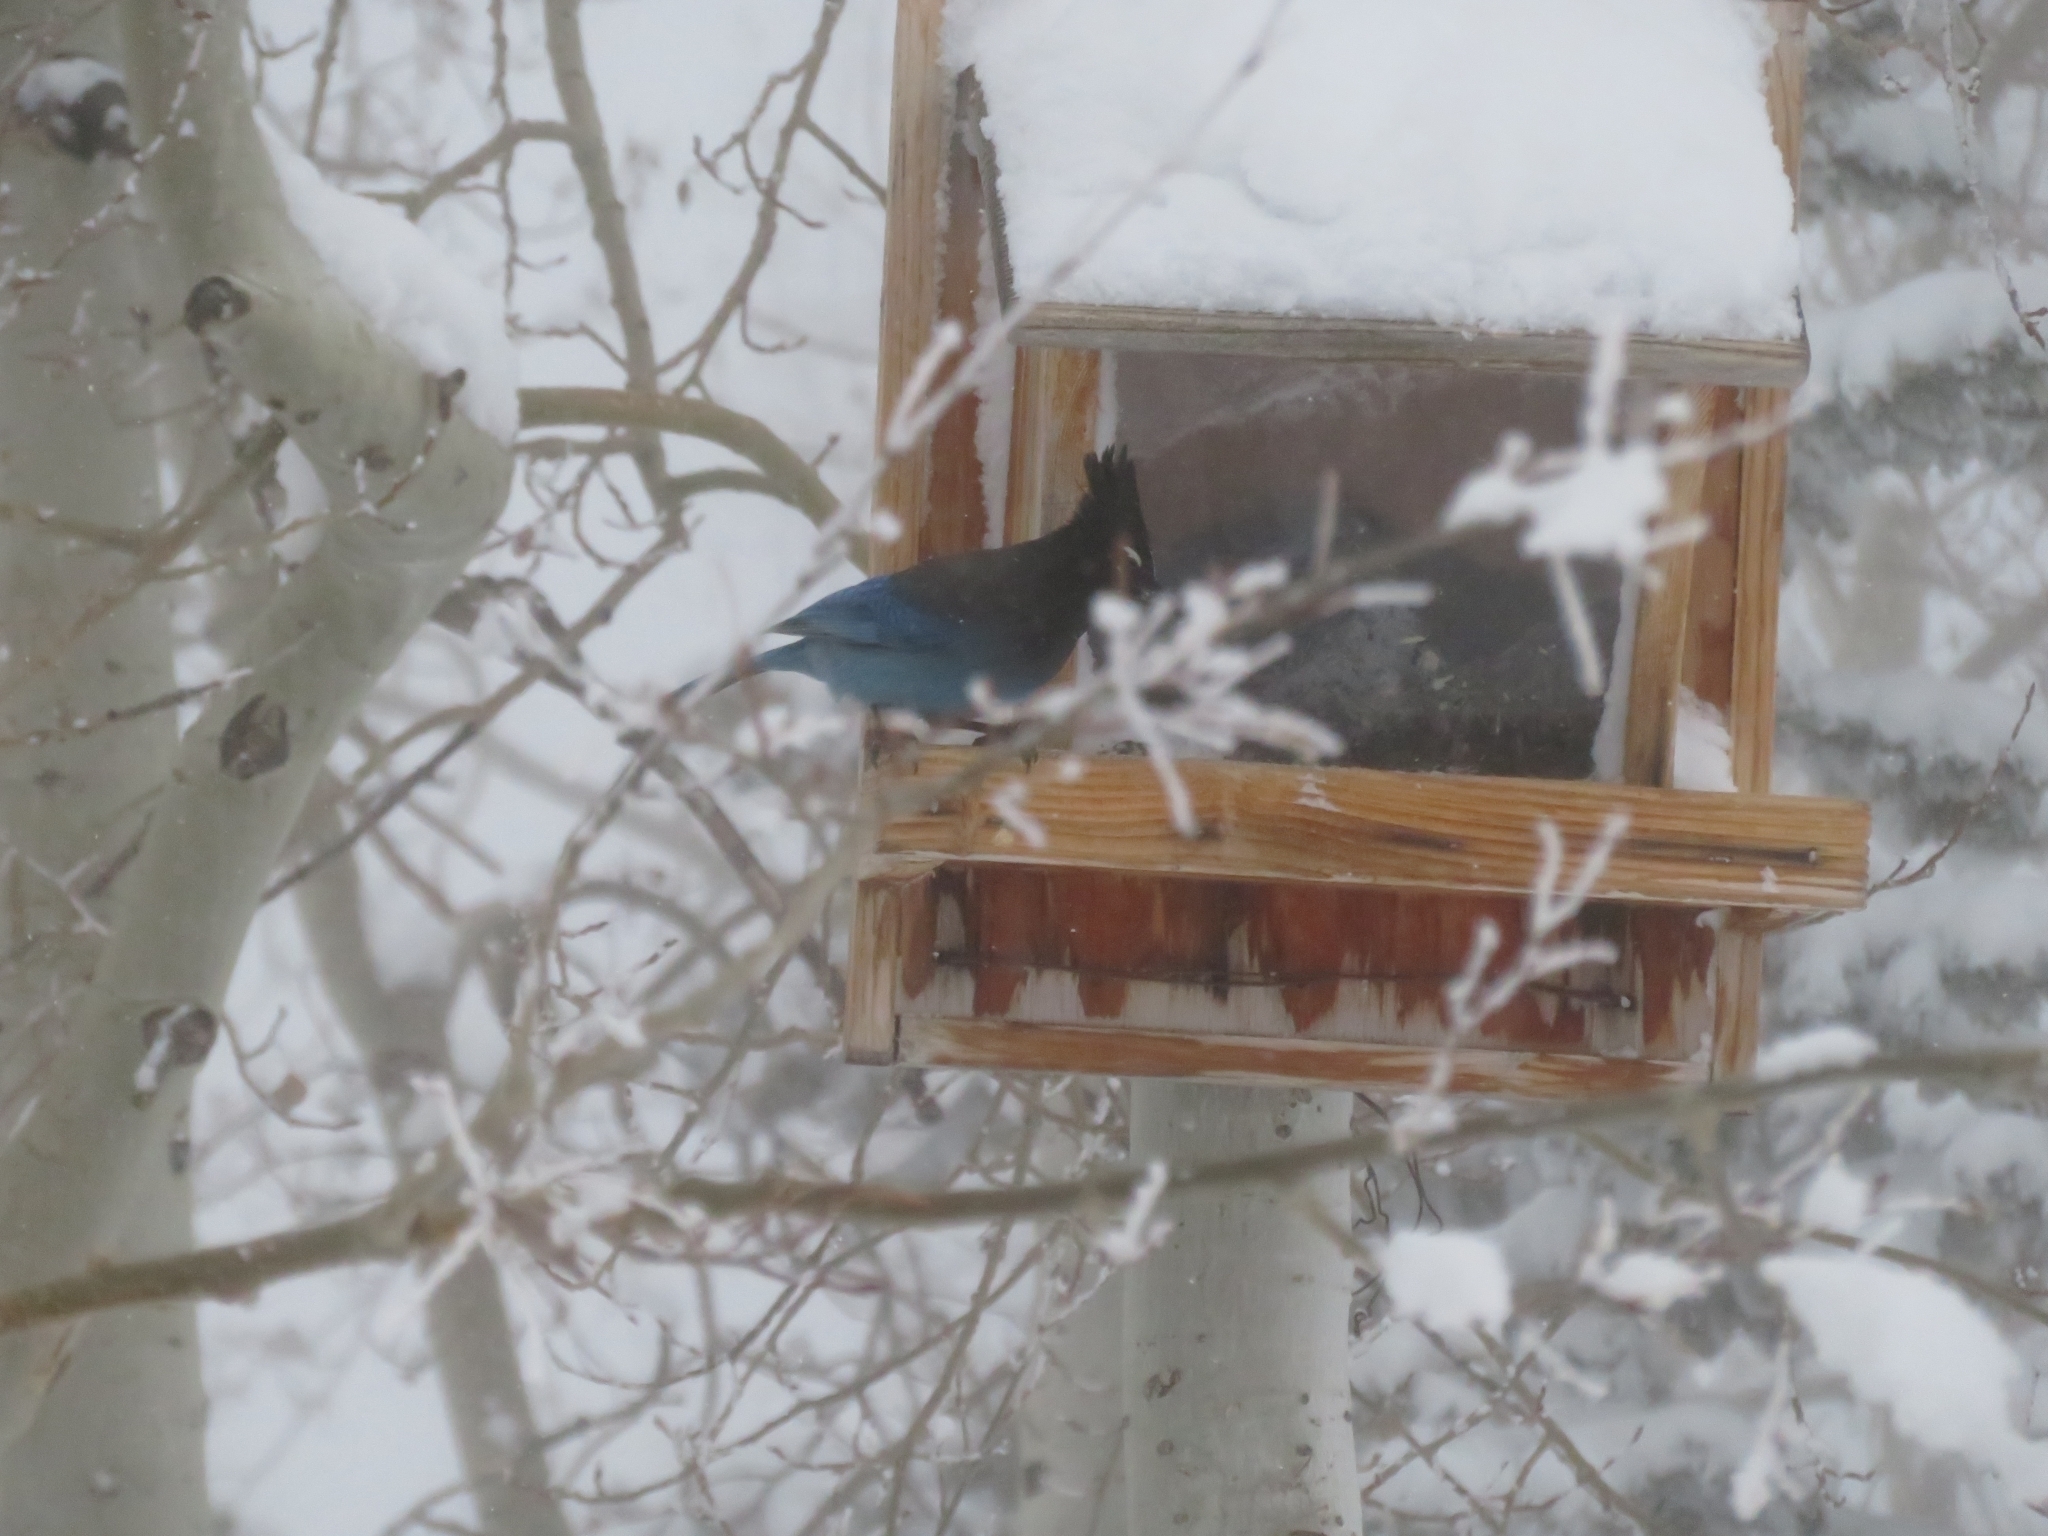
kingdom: Animalia
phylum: Chordata
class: Aves
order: Passeriformes
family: Corvidae
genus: Cyanocitta
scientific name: Cyanocitta stelleri
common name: Steller's jay
